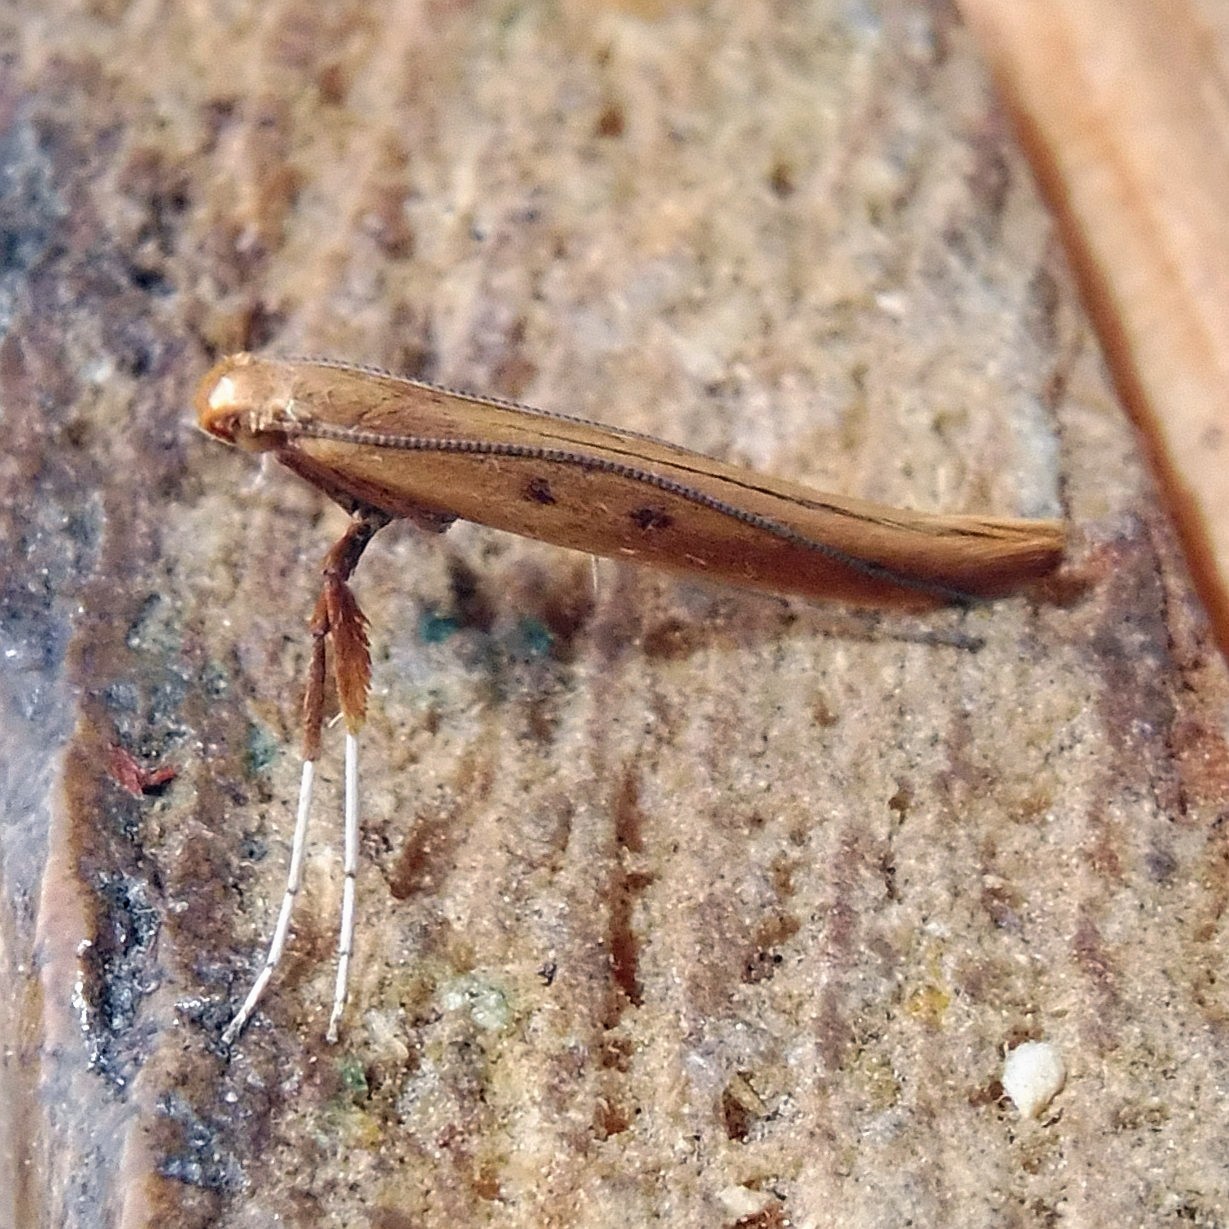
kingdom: Animalia
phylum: Arthropoda
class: Insecta
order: Lepidoptera
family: Gracillariidae
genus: Caloptilia
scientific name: Caloptilia
